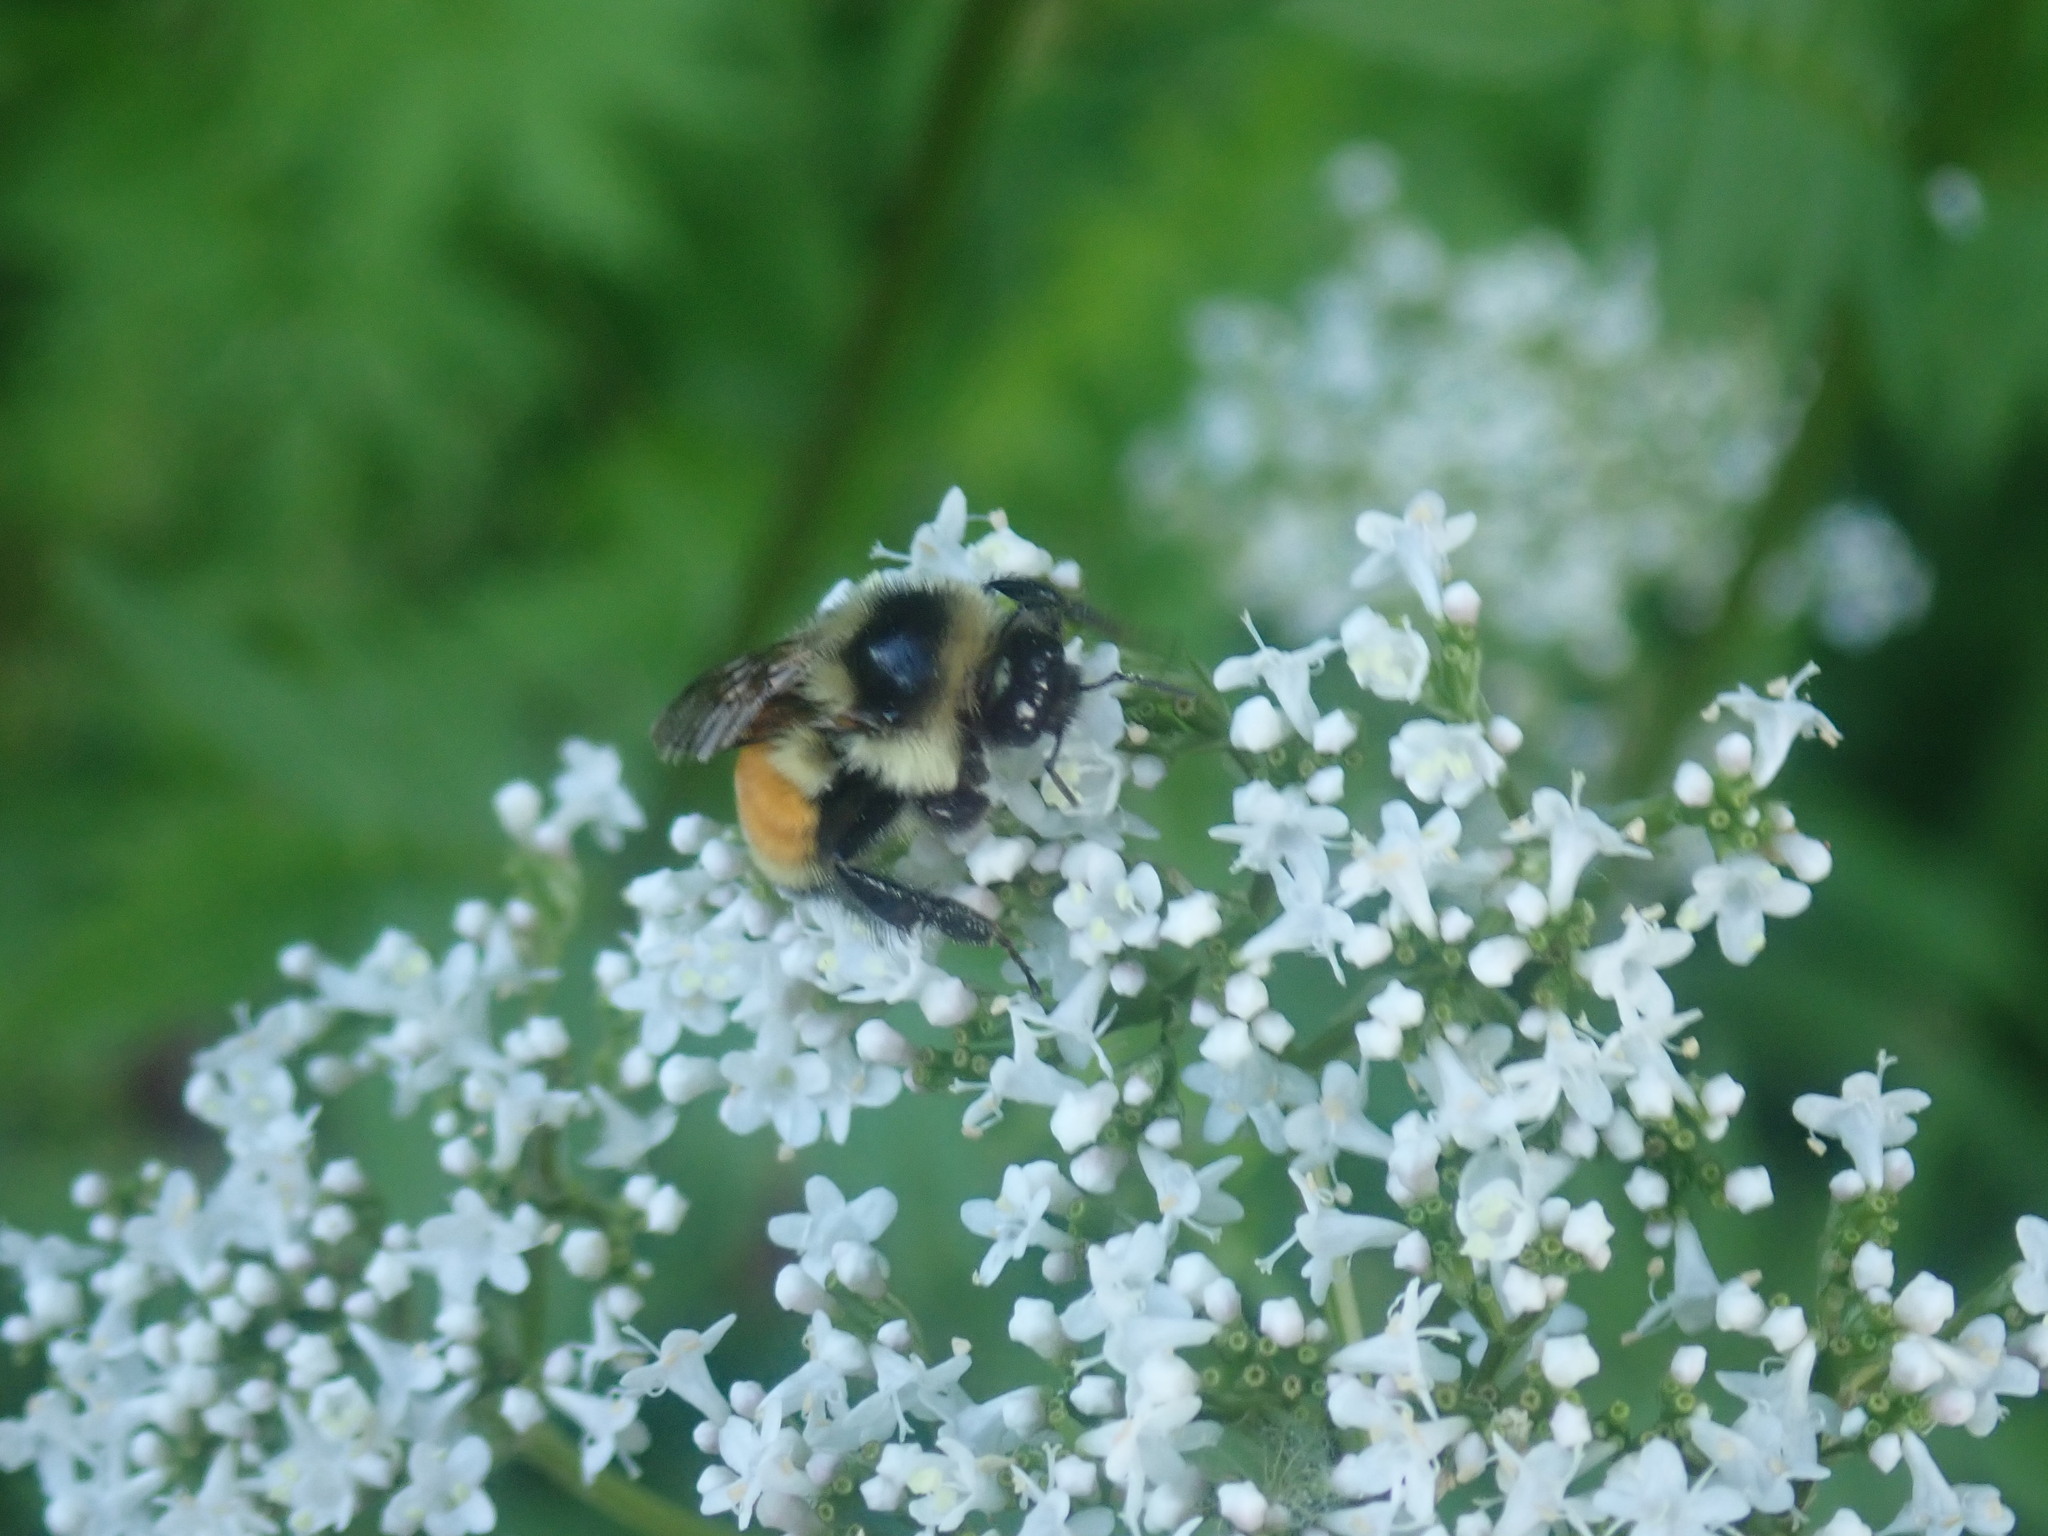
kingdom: Animalia
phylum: Arthropoda
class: Insecta
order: Hymenoptera
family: Apidae
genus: Bombus
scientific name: Bombus ternarius
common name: Tri-colored bumble bee
